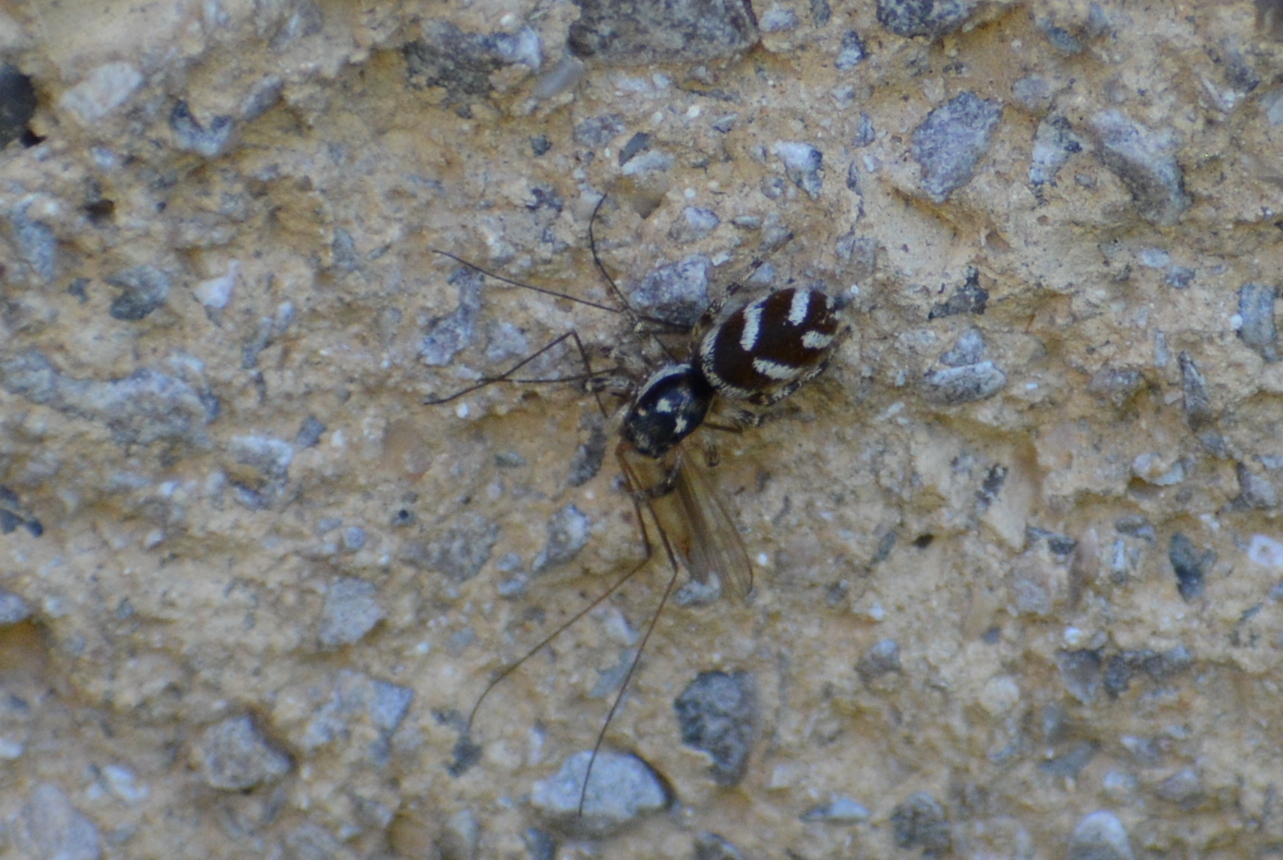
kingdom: Animalia
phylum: Arthropoda
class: Arachnida
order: Araneae
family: Salticidae
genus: Salticus
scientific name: Salticus scenicus
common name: Zebra jumper
